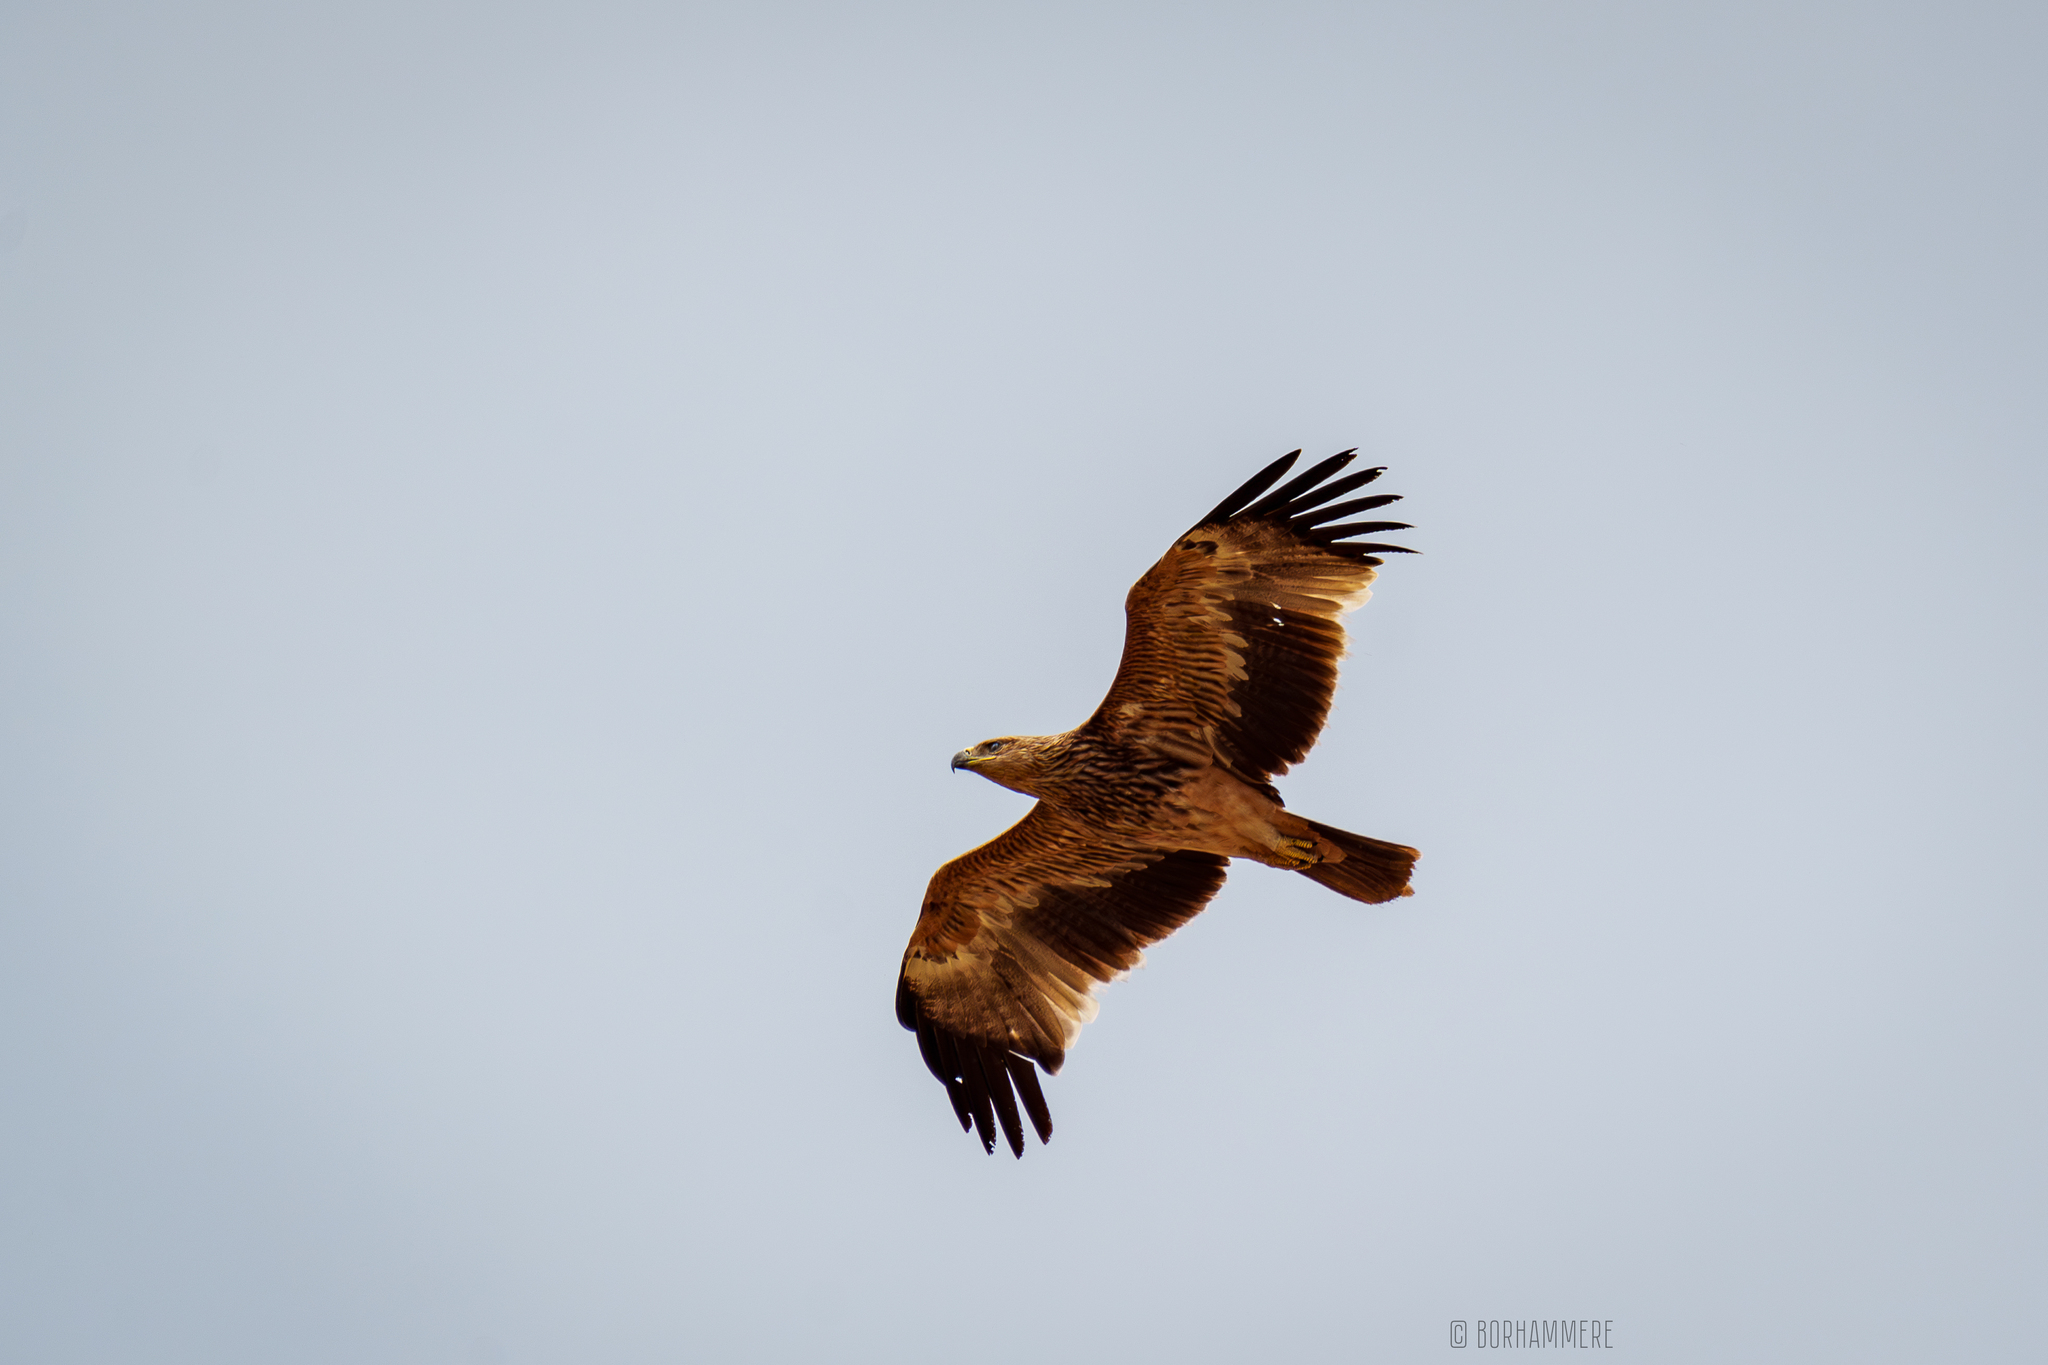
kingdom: Animalia
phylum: Chordata
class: Aves
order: Accipitriformes
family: Accipitridae
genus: Aquila
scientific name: Aquila heliaca
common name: Eastern imperial eagle
